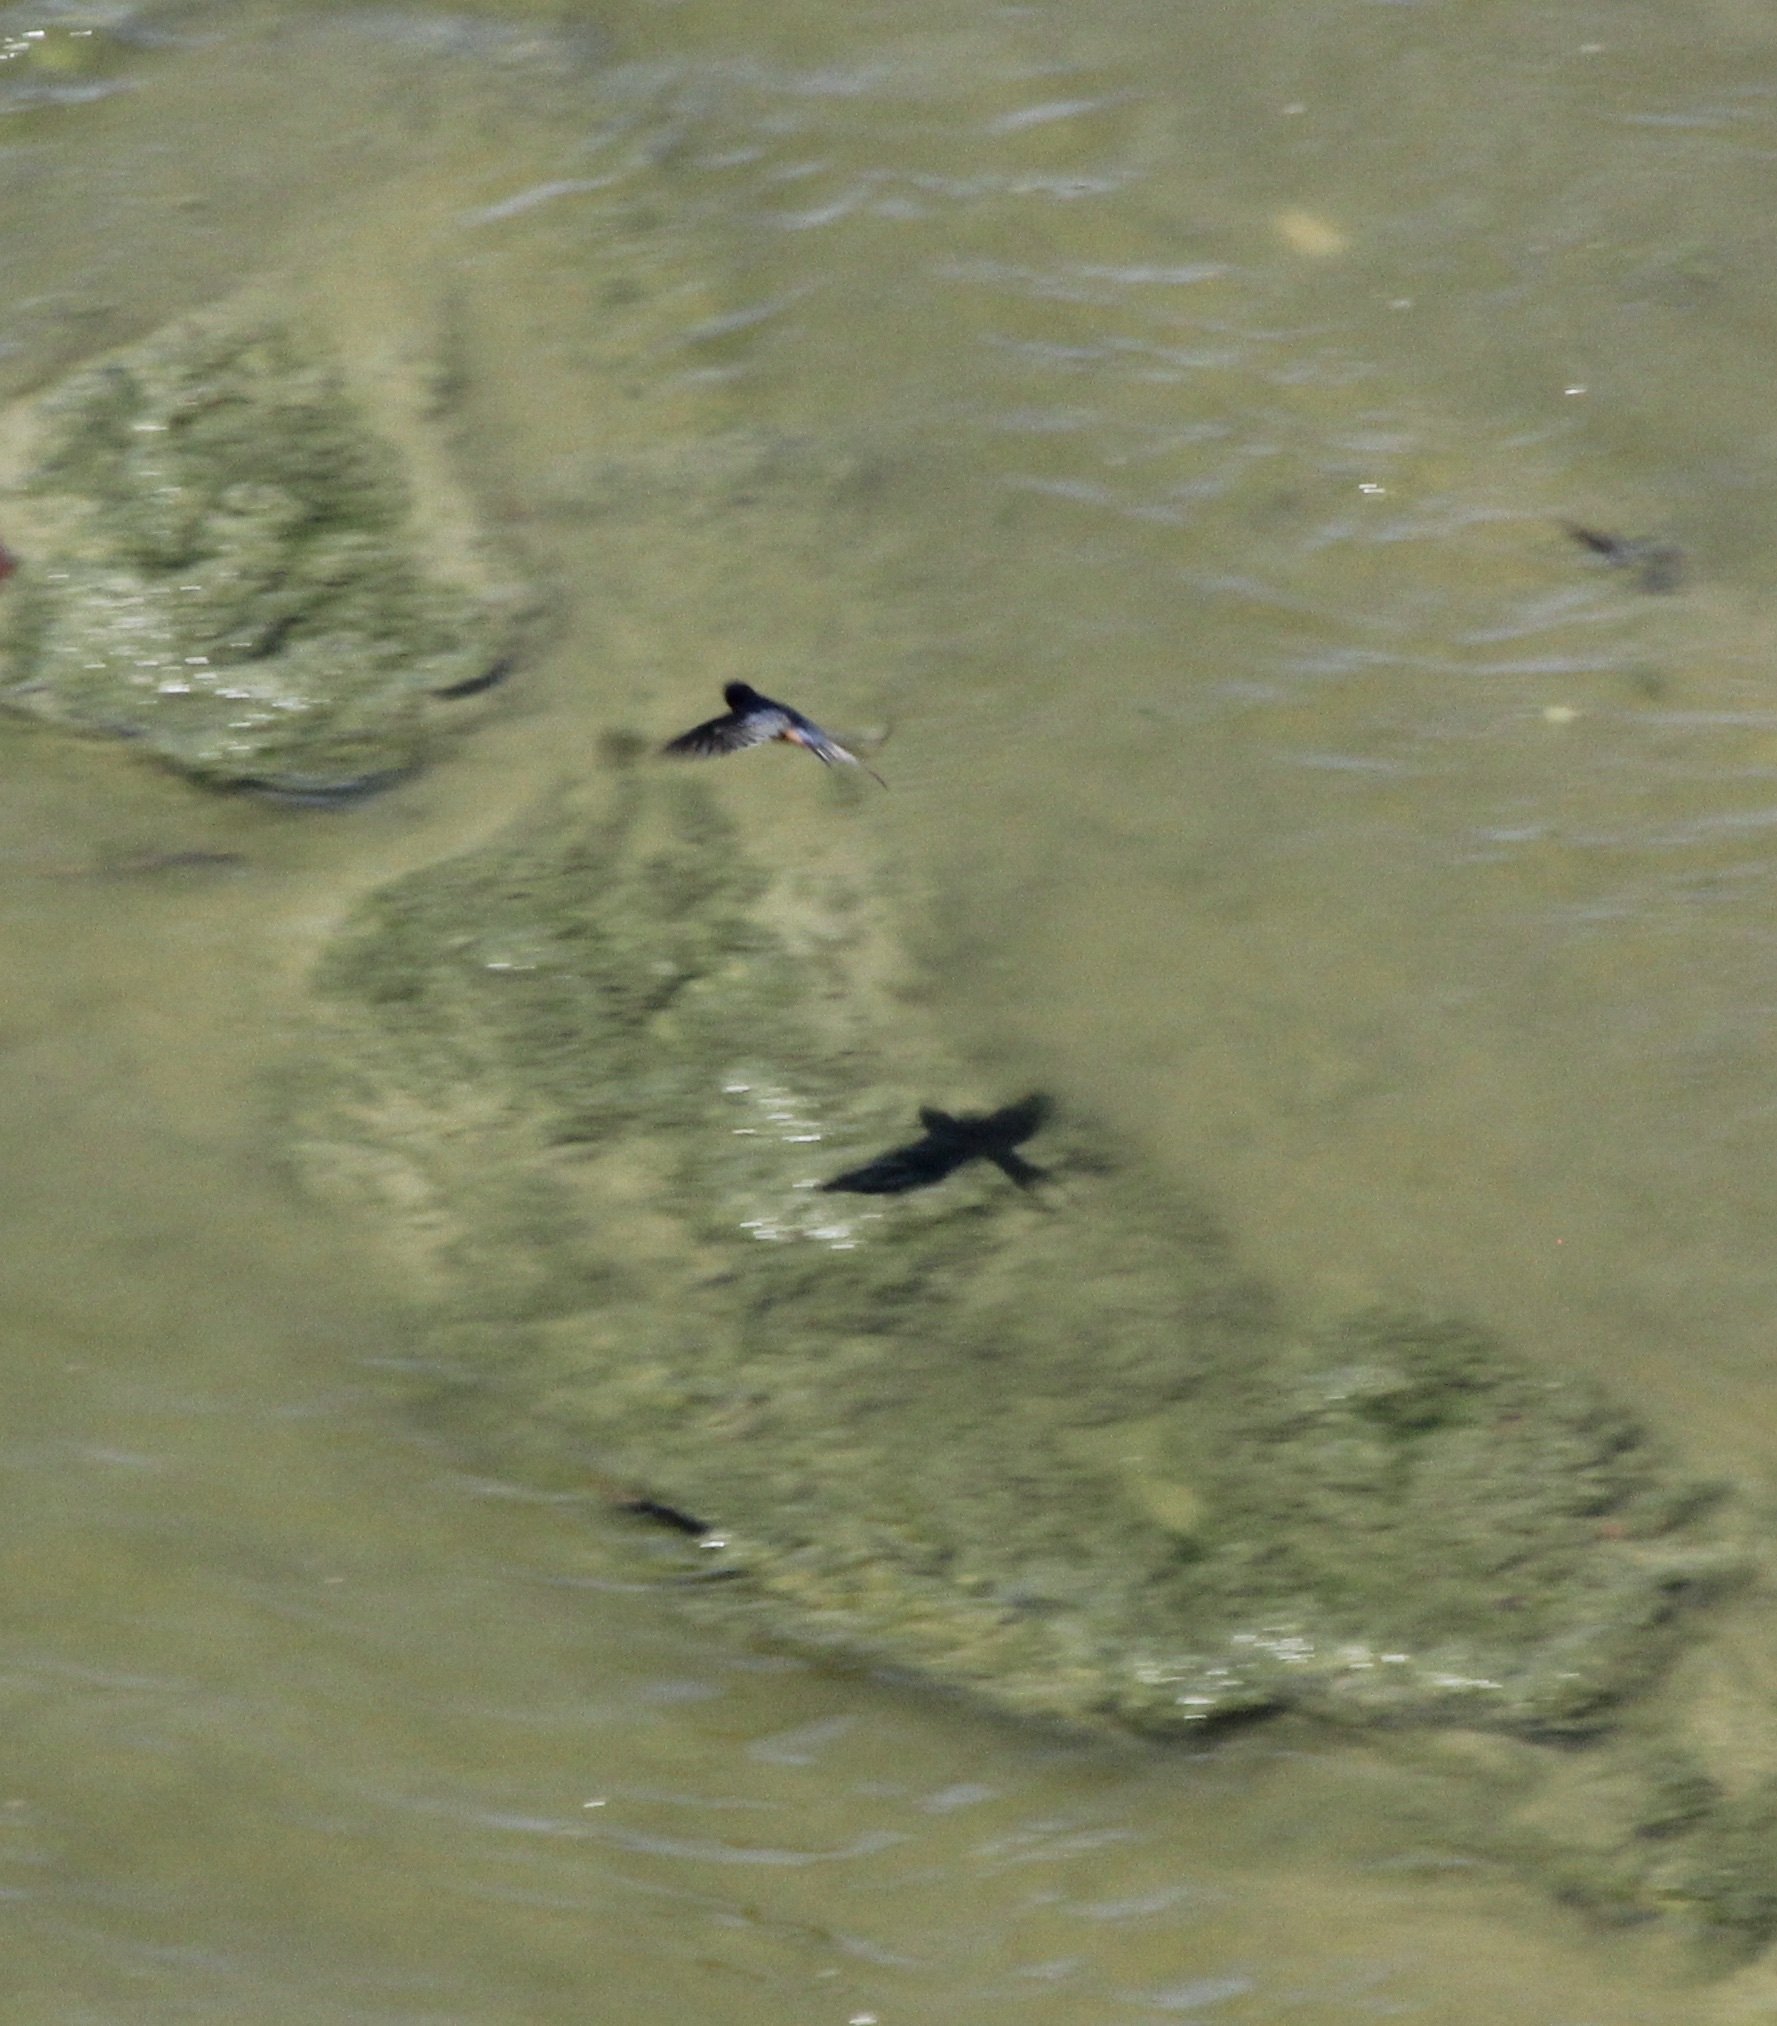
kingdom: Animalia
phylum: Chordata
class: Aves
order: Passeriformes
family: Hirundinidae
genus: Hirundo
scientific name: Hirundo rustica
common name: Barn swallow
